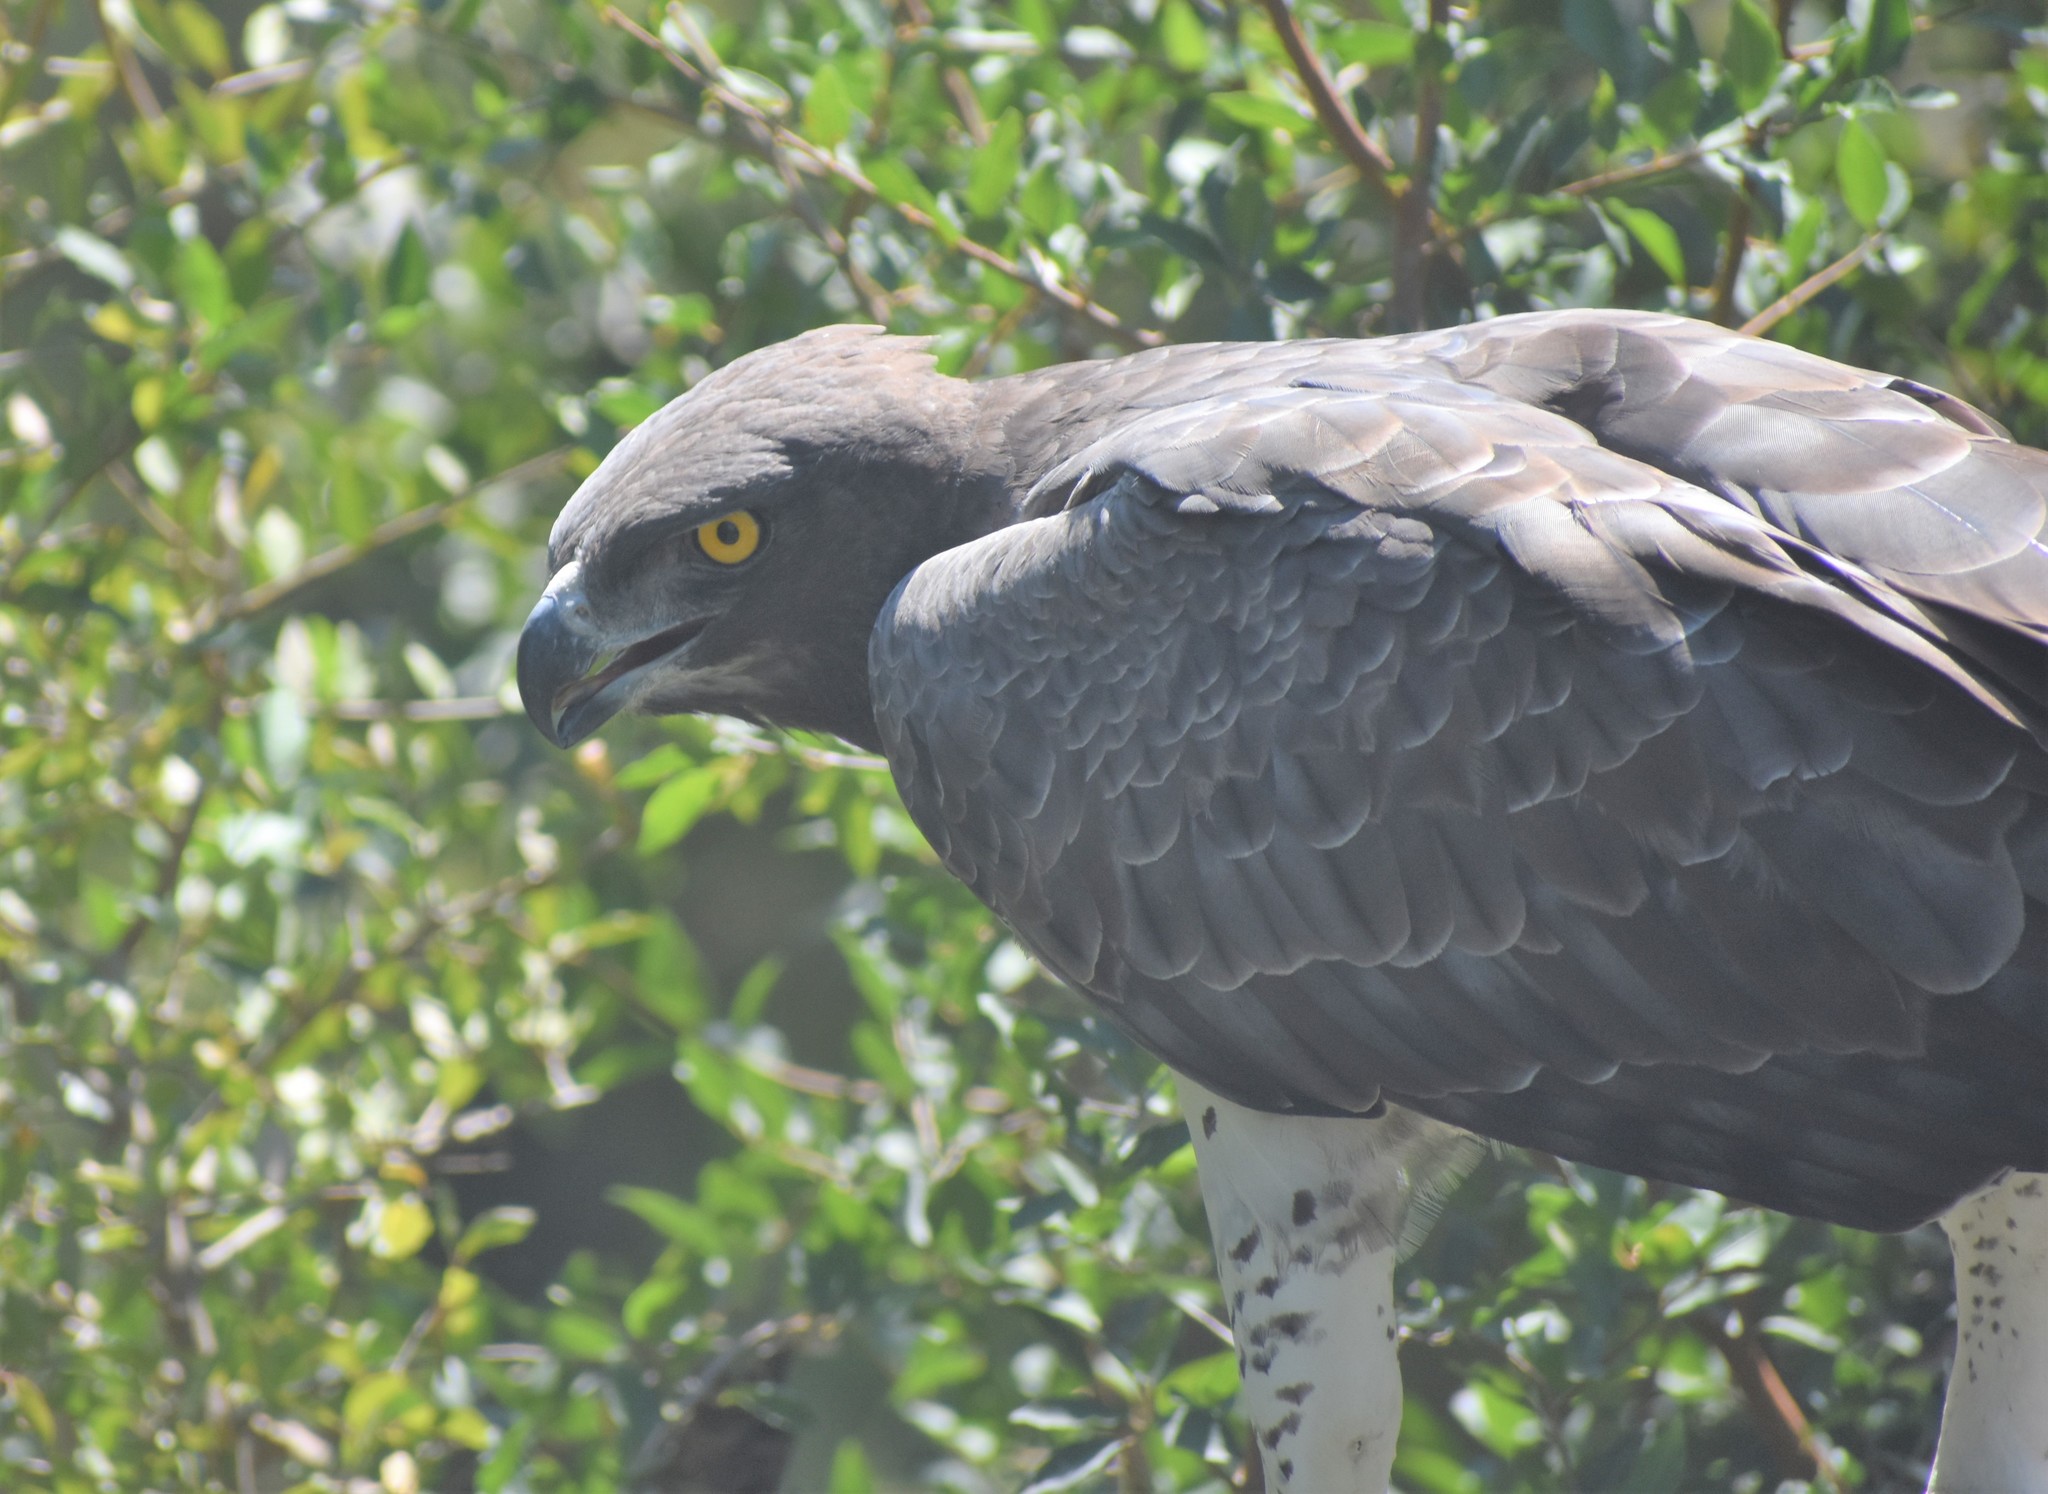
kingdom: Animalia
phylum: Chordata
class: Aves
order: Accipitriformes
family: Accipitridae
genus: Polemaetus
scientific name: Polemaetus bellicosus
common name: Martial eagle
